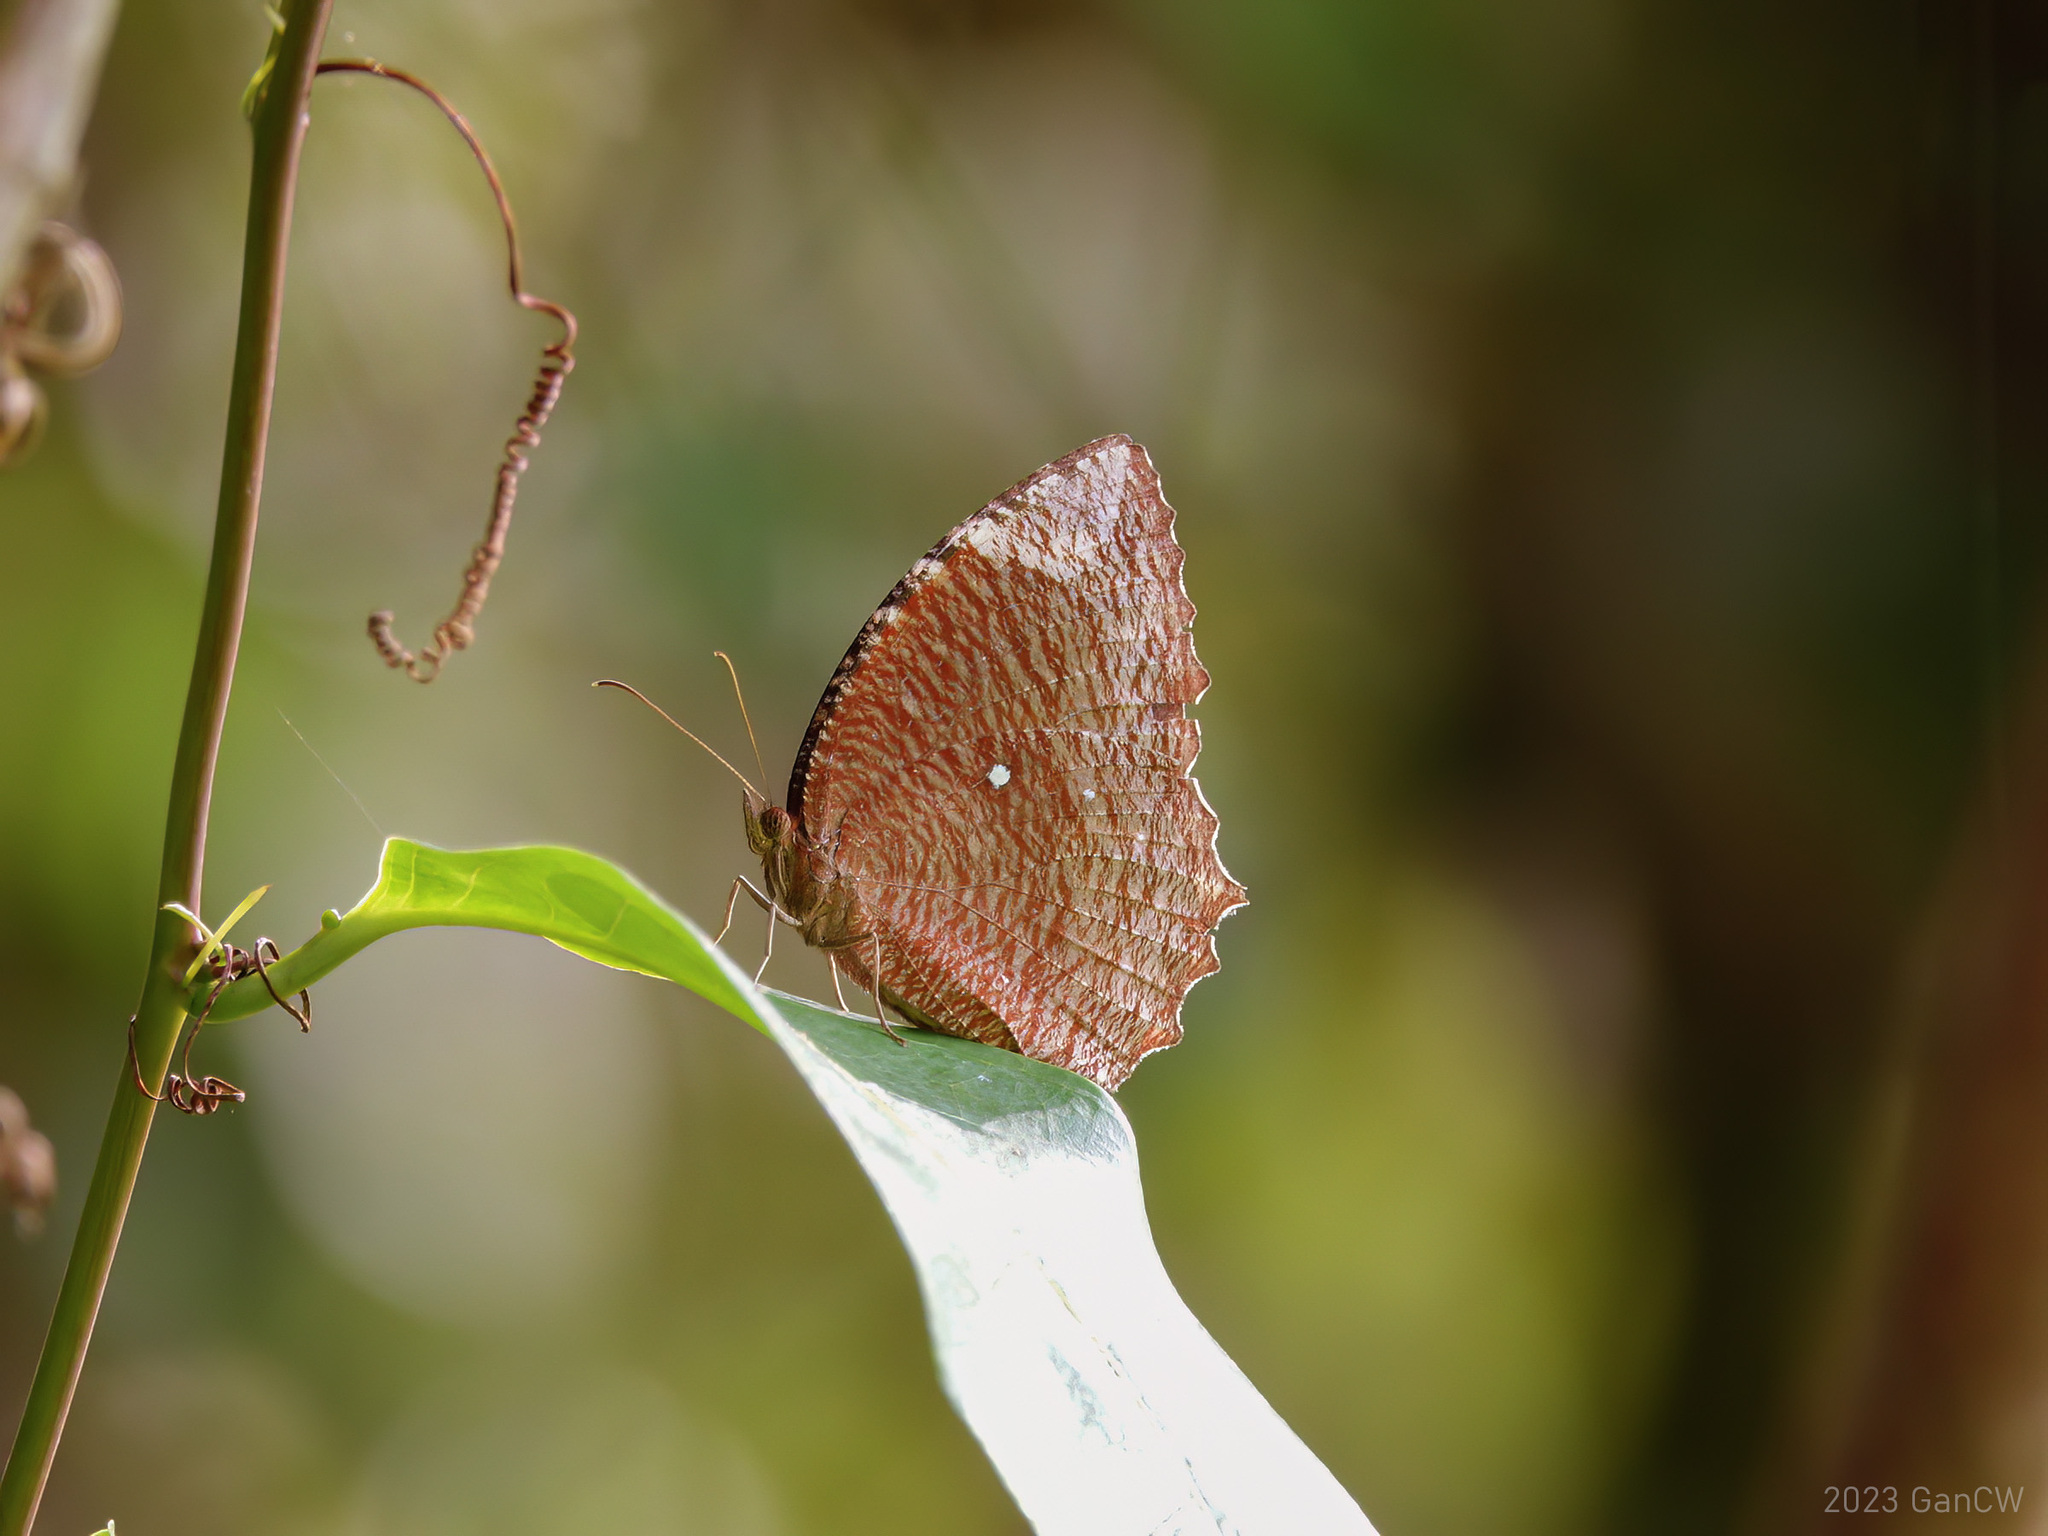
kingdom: Animalia
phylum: Arthropoda
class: Insecta
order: Lepidoptera
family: Nymphalidae
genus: Elymnias
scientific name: Elymnias hypermnestra
